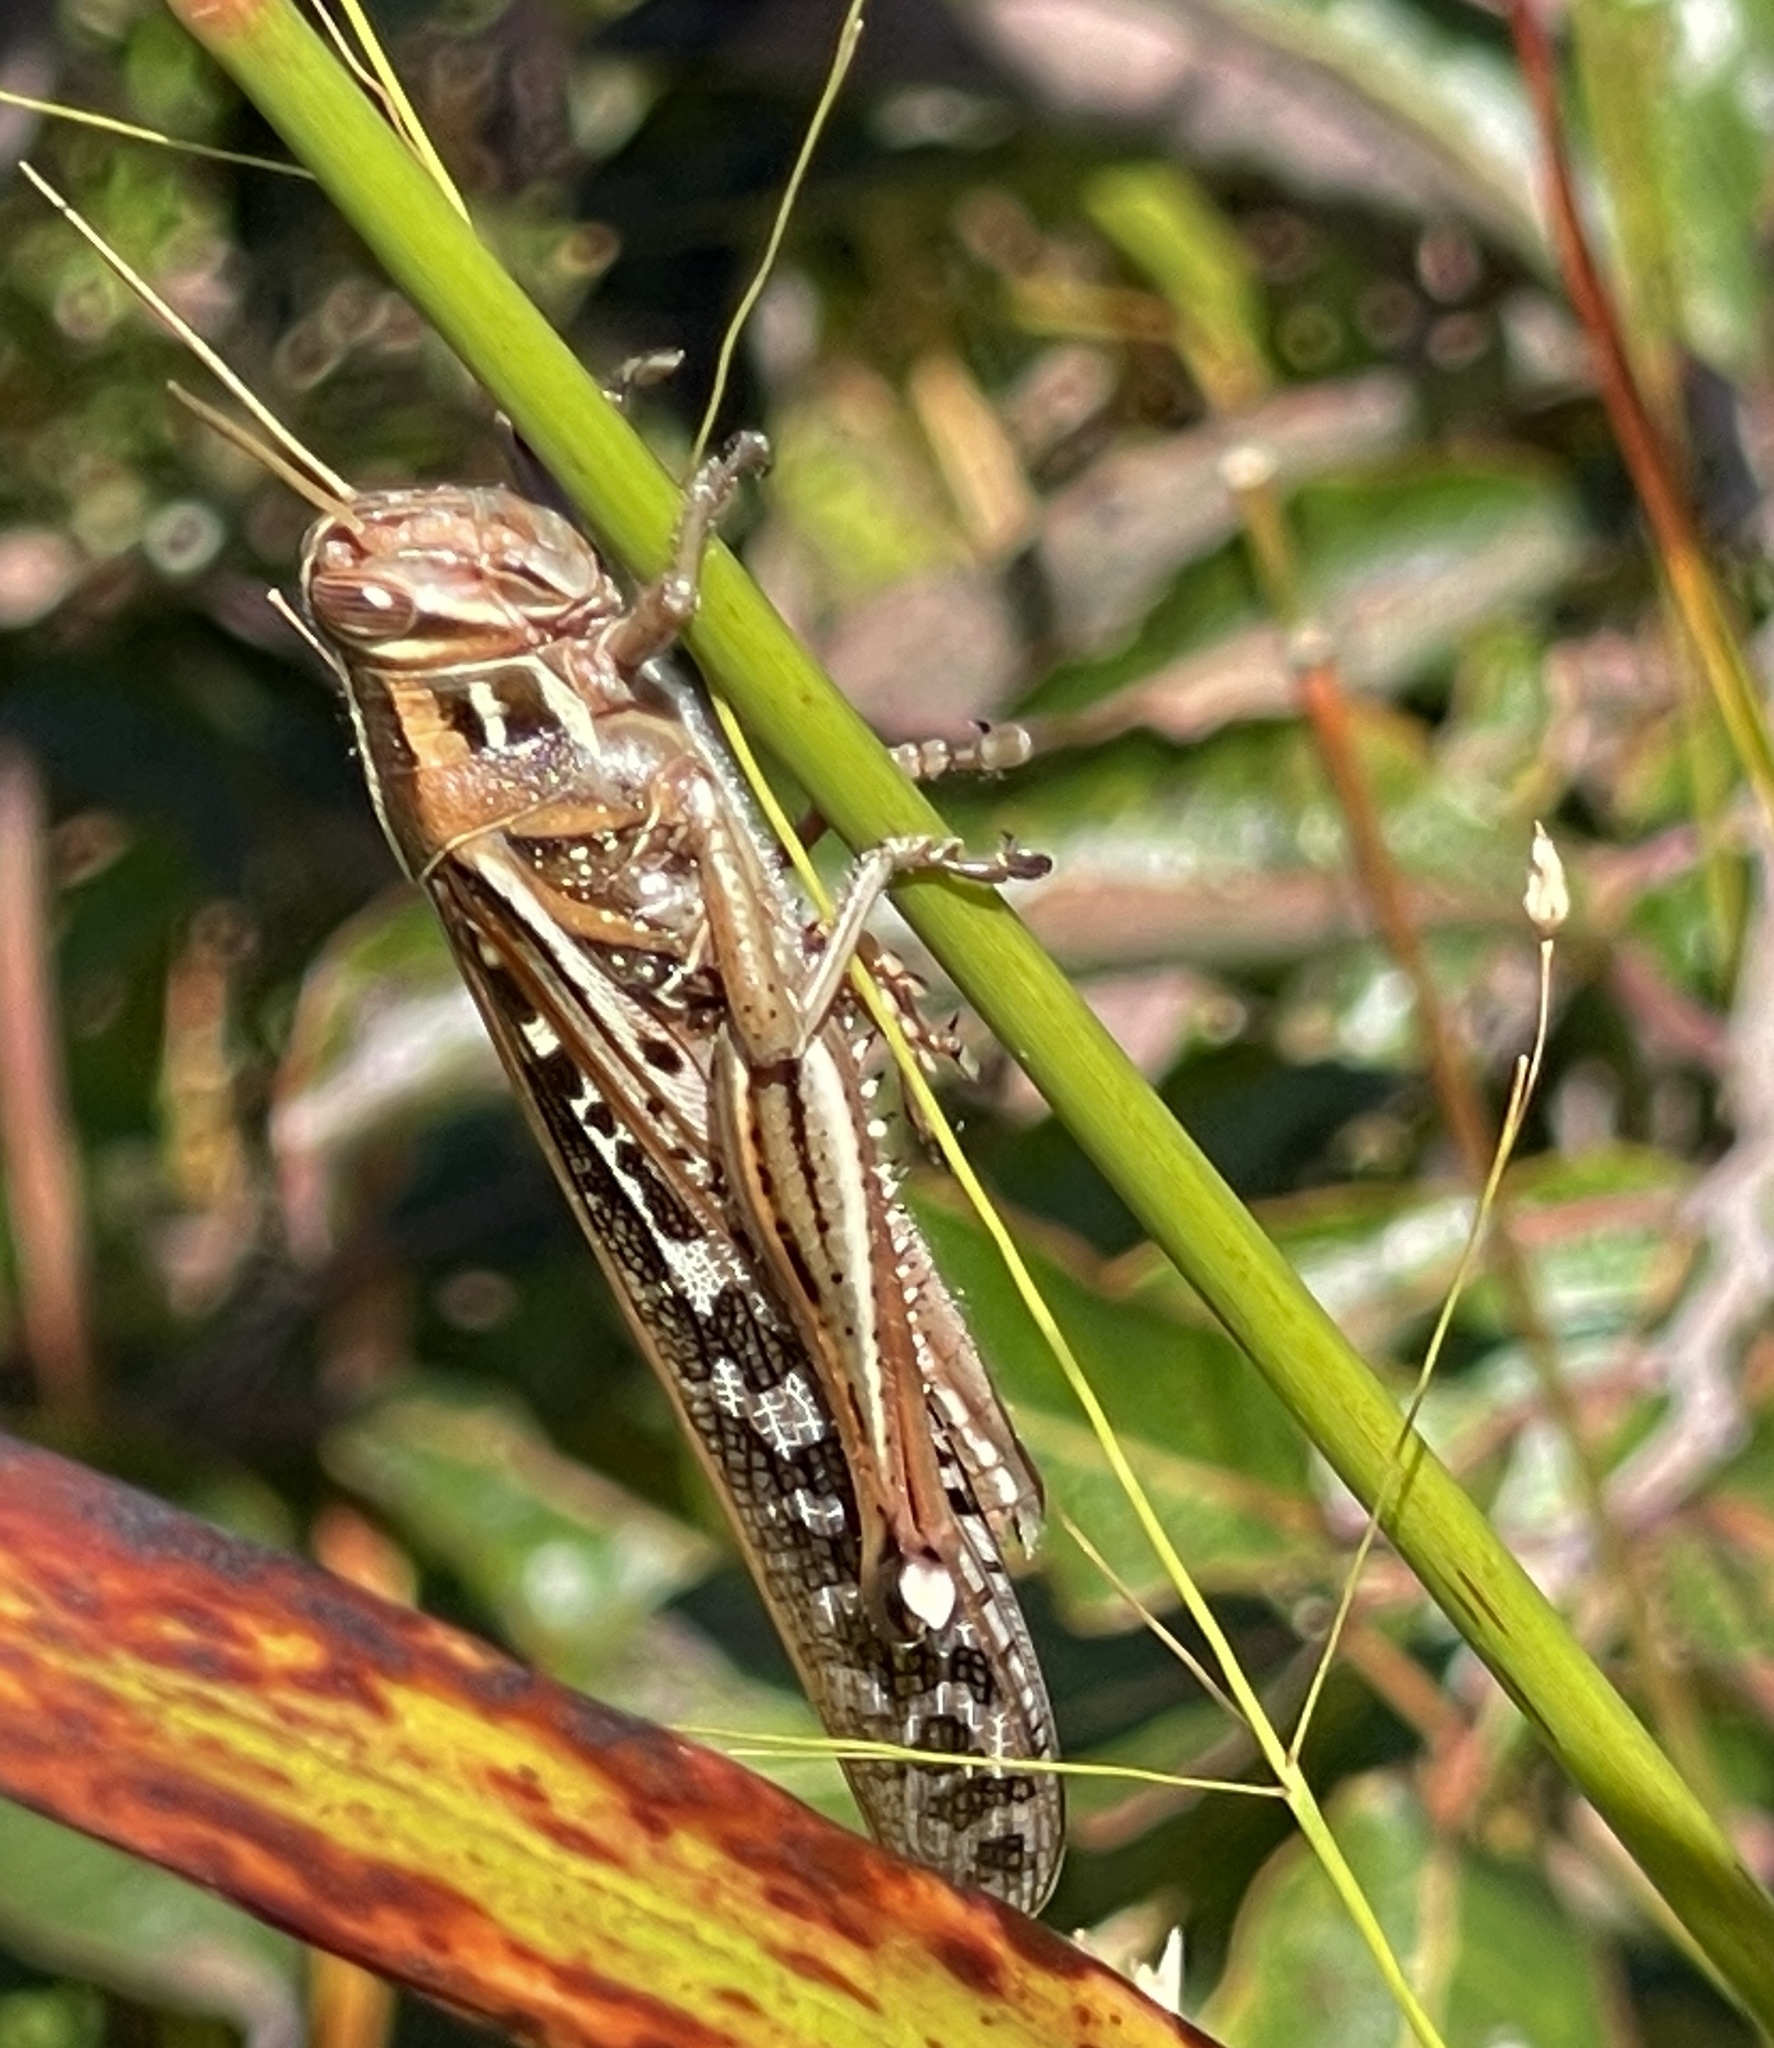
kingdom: Animalia
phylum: Arthropoda
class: Insecta
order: Orthoptera
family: Acrididae
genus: Schistocerca
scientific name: Schistocerca americana
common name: American bird locust
